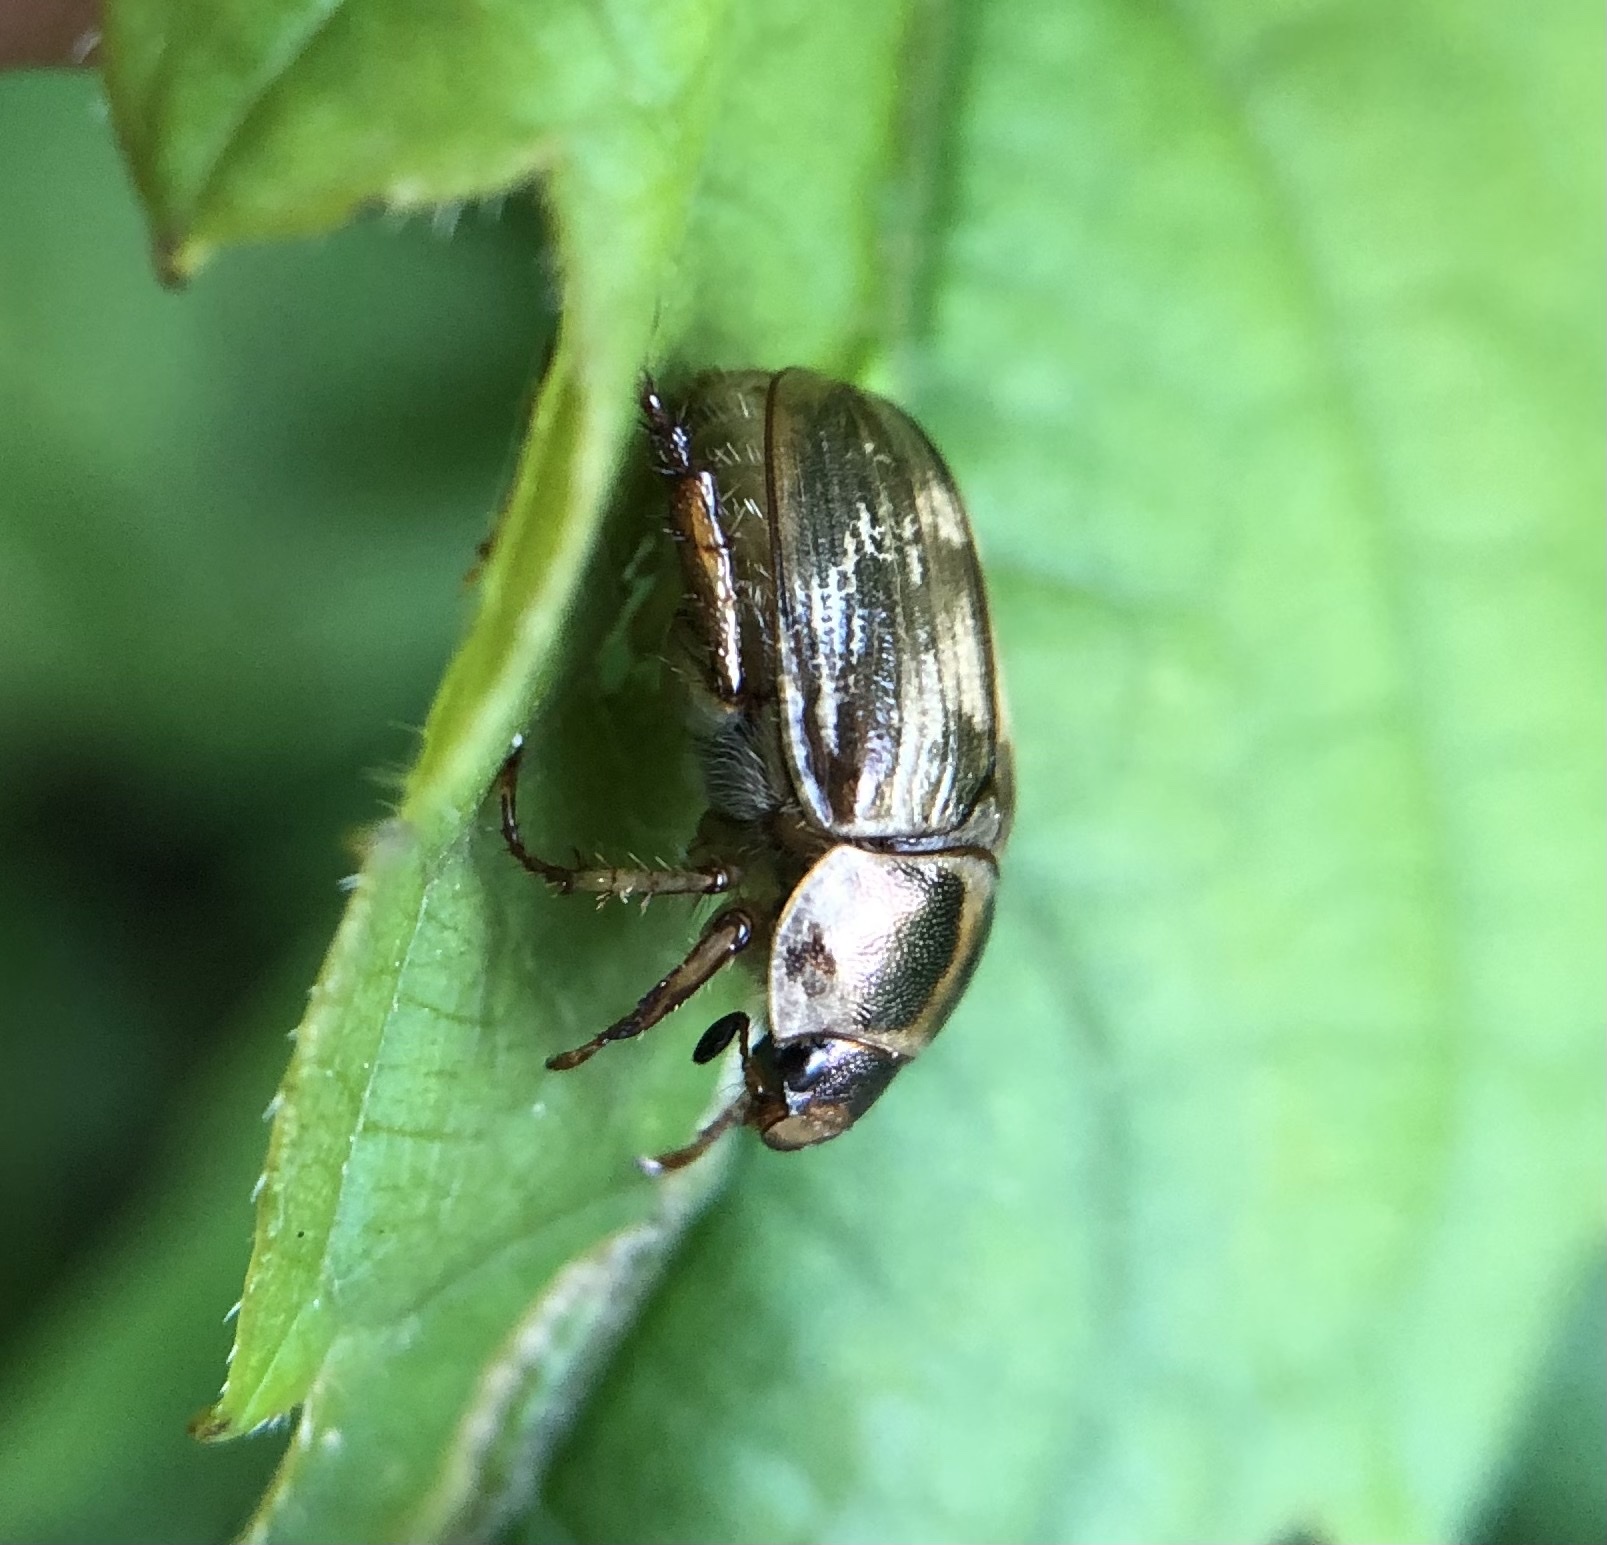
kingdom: Animalia
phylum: Arthropoda
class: Insecta
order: Coleoptera
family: Scarabaeidae
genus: Exomala
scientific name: Exomala orientalis
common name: Oriental beetle
